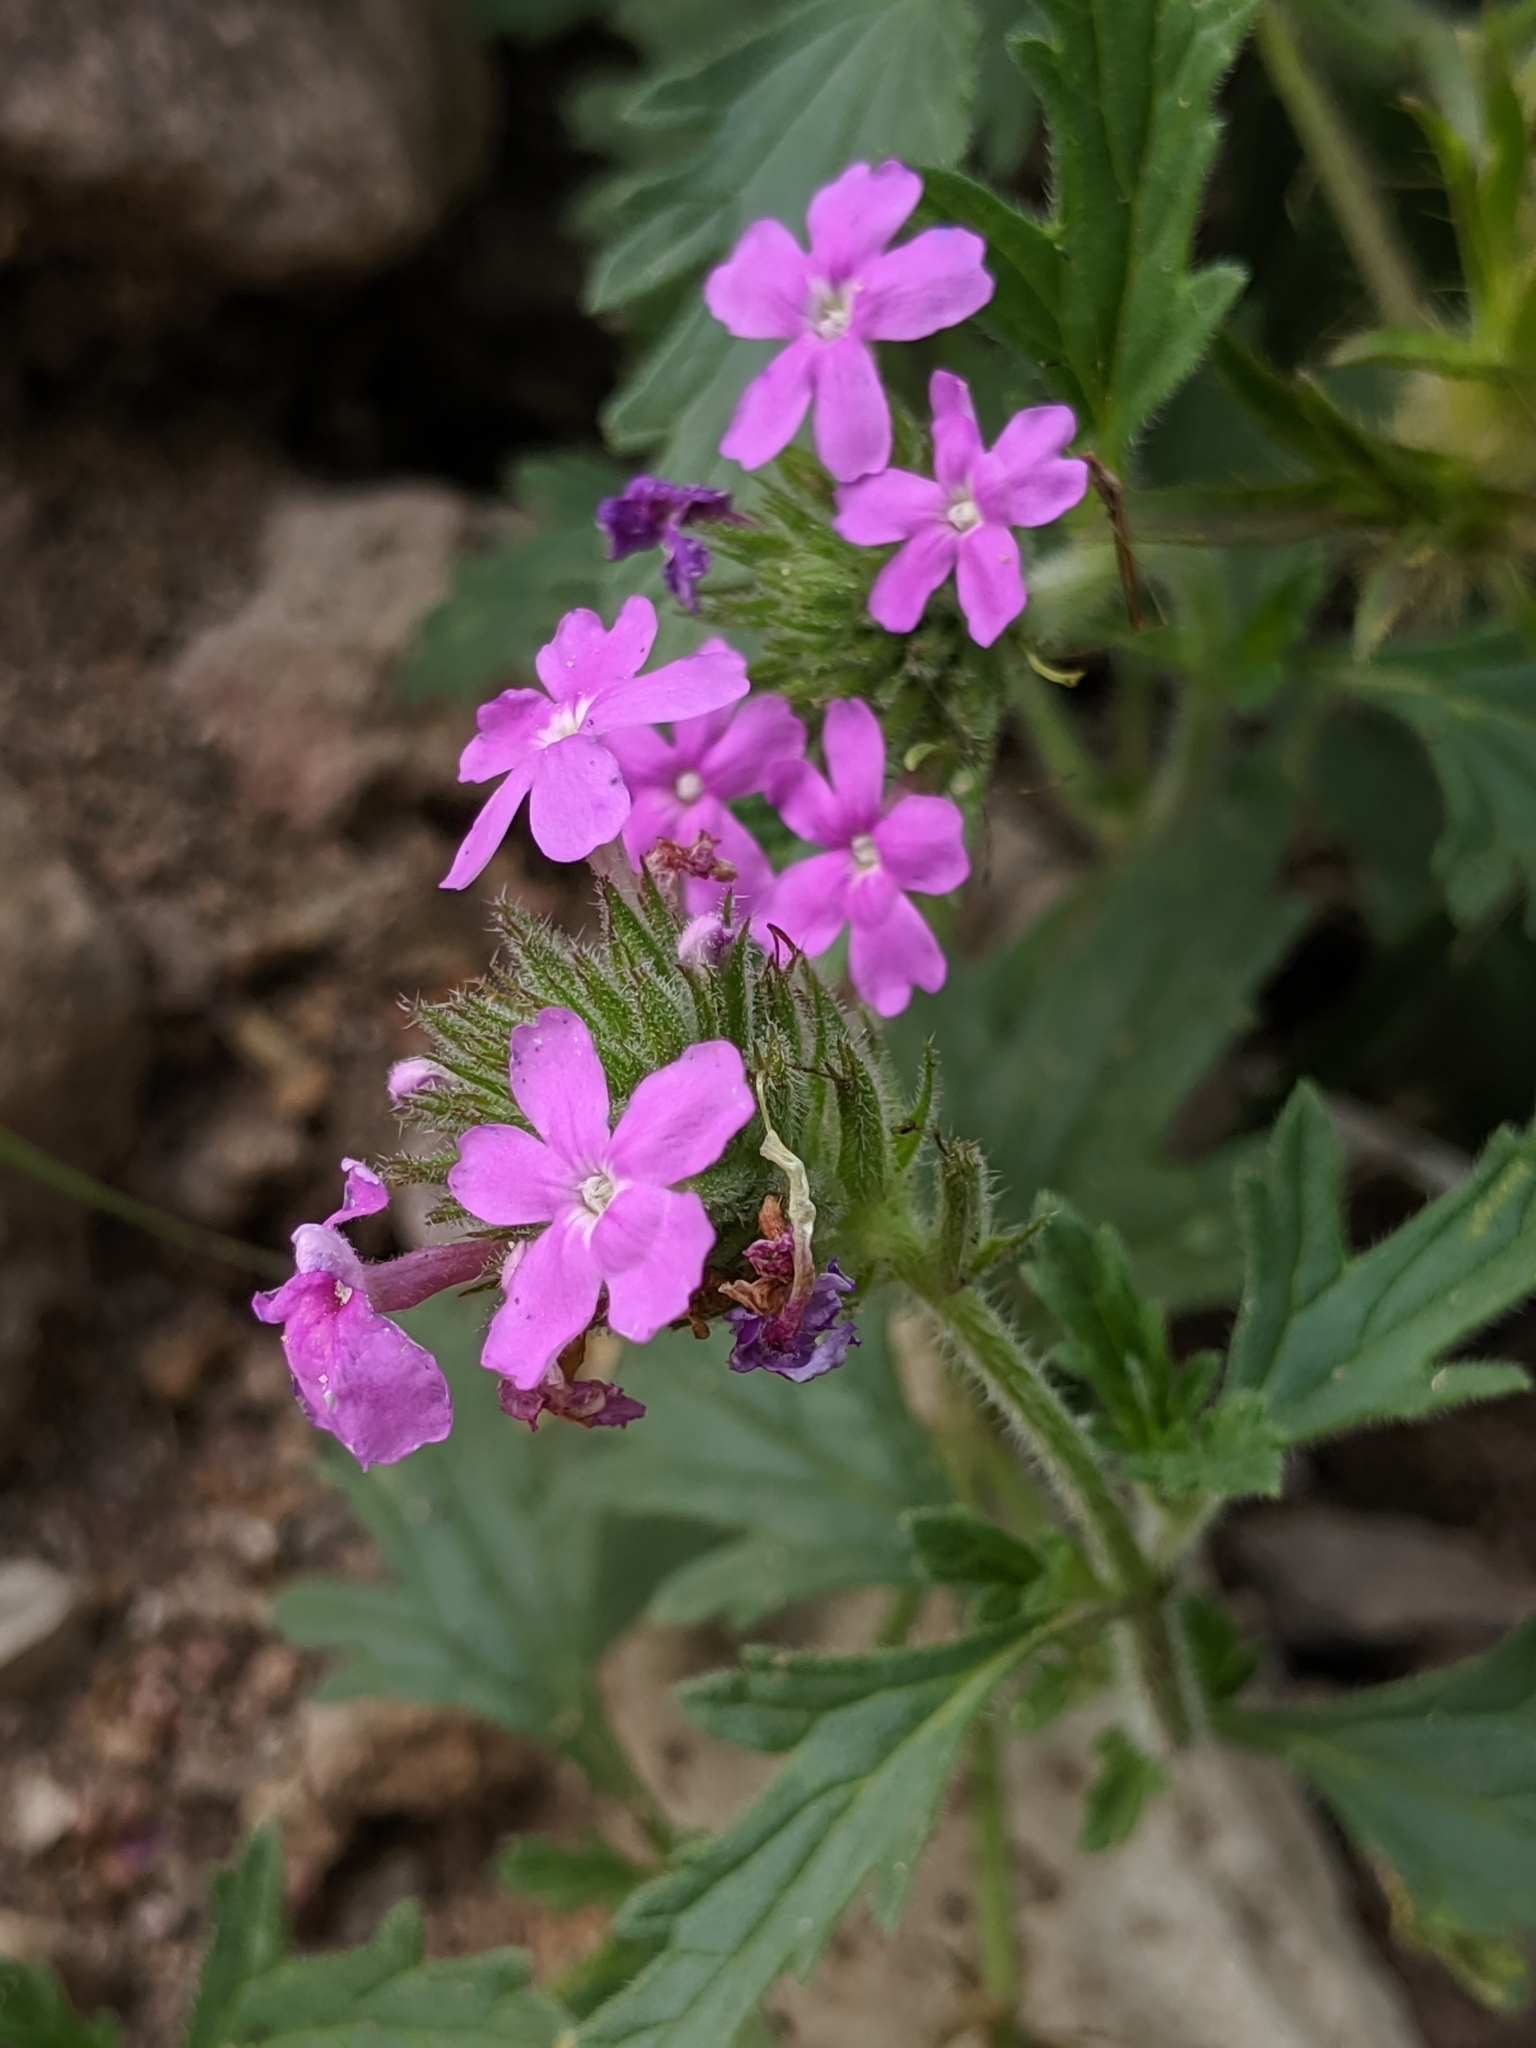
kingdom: Plantae
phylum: Tracheophyta
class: Magnoliopsida
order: Lamiales
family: Verbenaceae
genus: Verbena
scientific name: Verbena gooddingii
